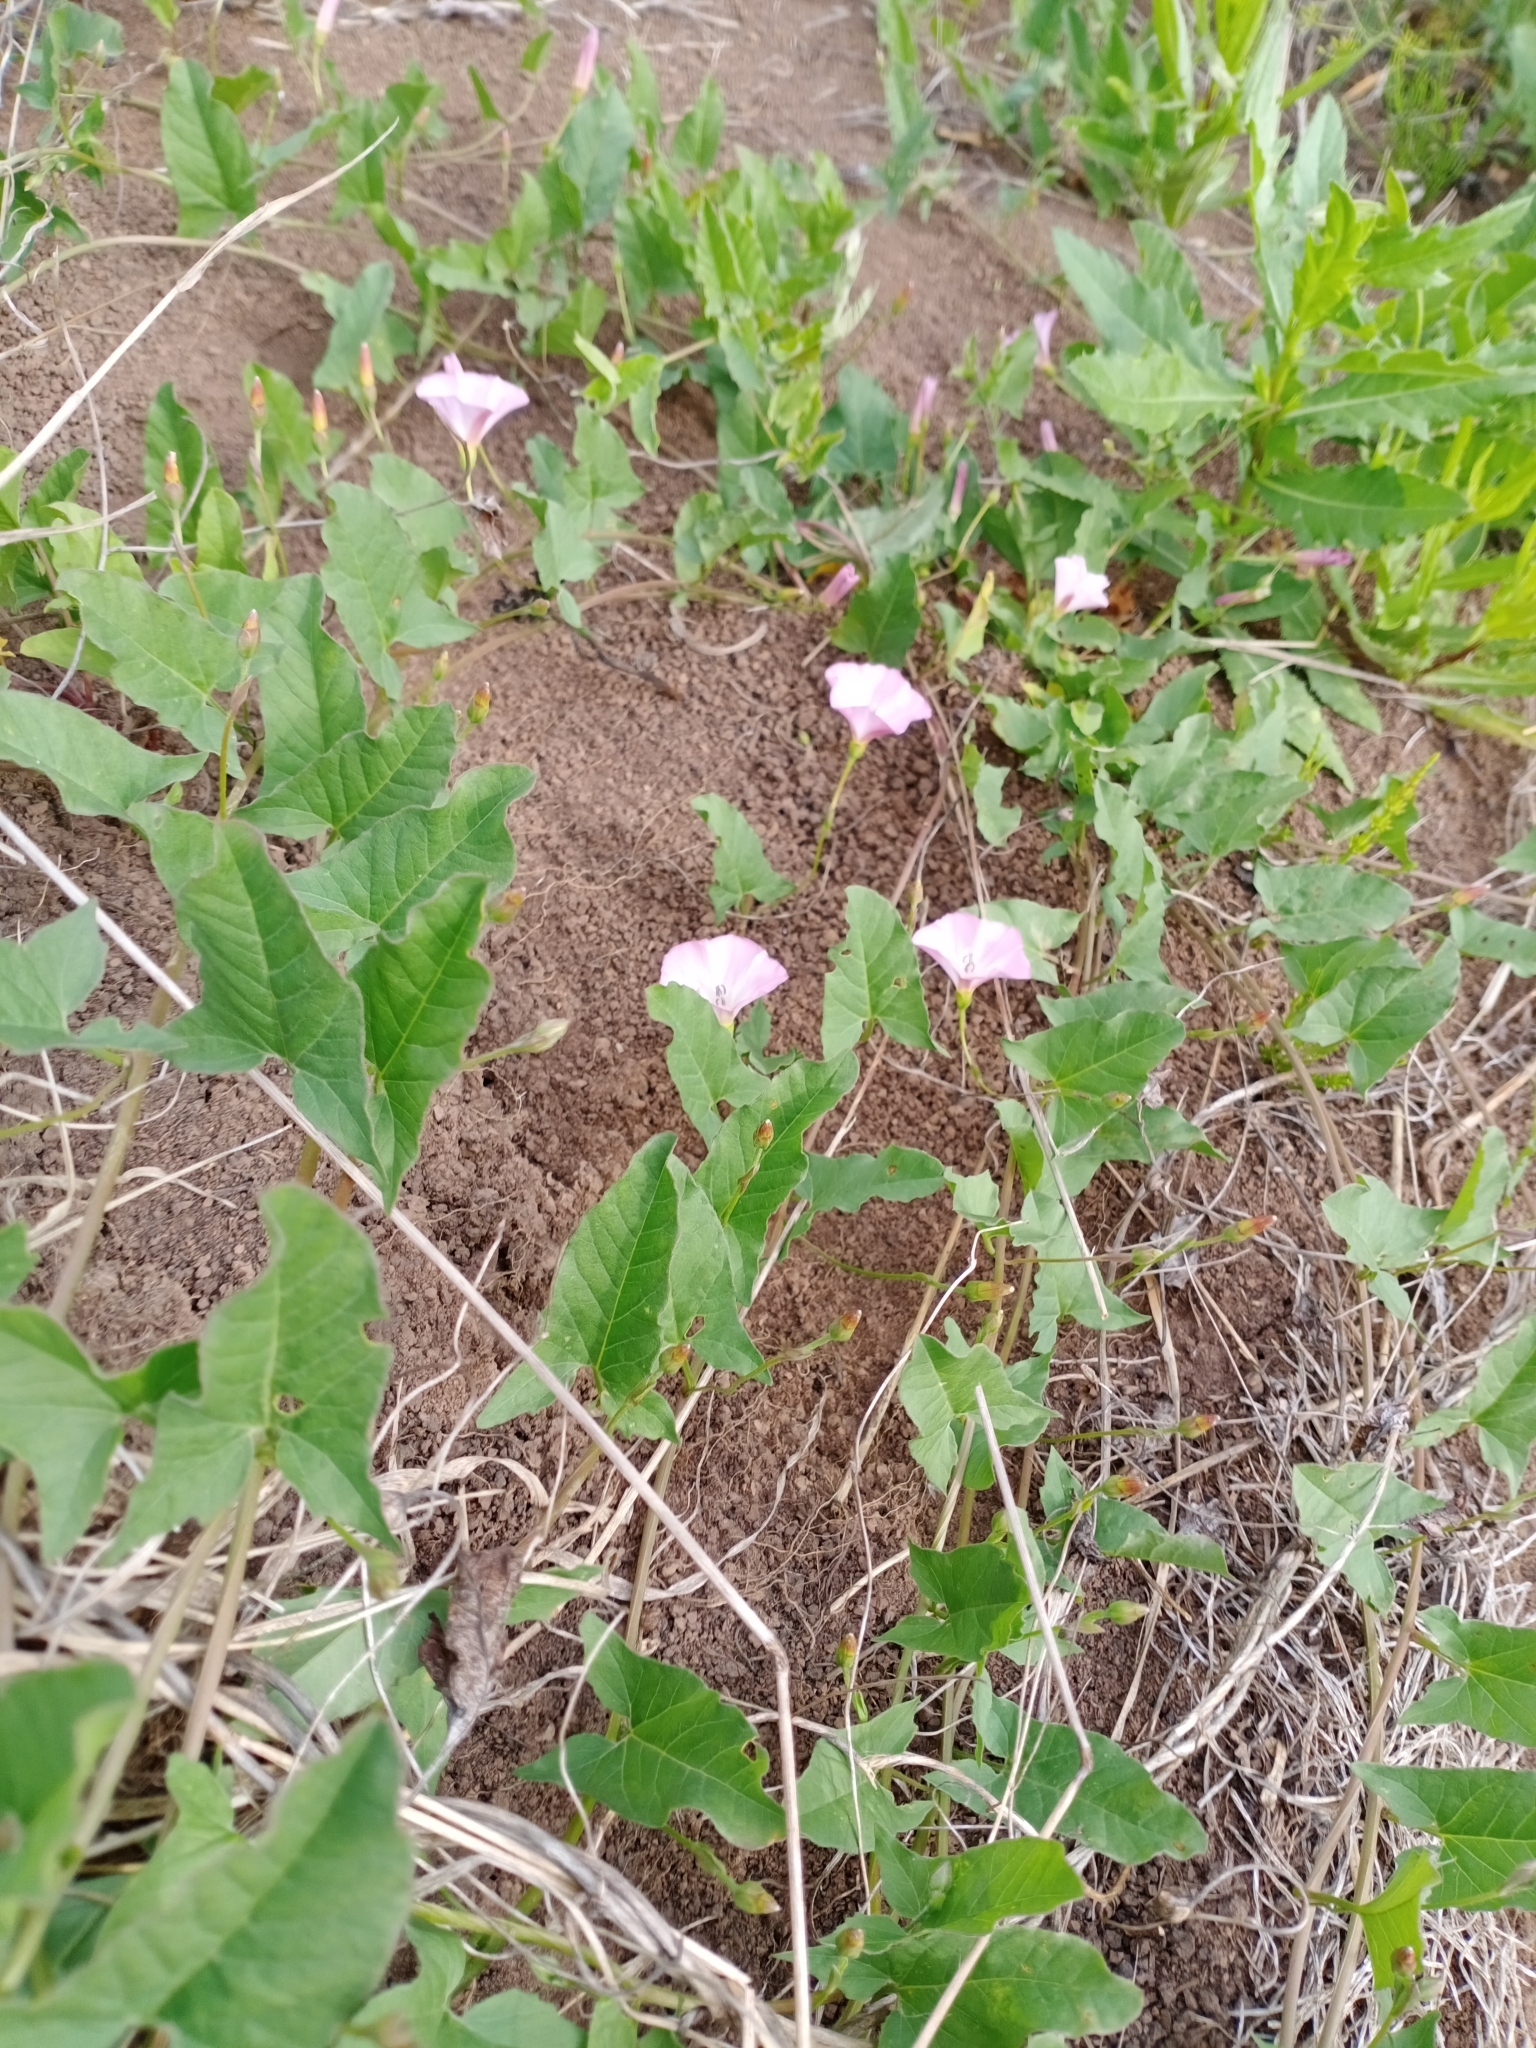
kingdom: Plantae
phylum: Tracheophyta
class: Magnoliopsida
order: Solanales
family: Convolvulaceae
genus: Convolvulus
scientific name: Convolvulus arvensis
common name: Field bindweed
